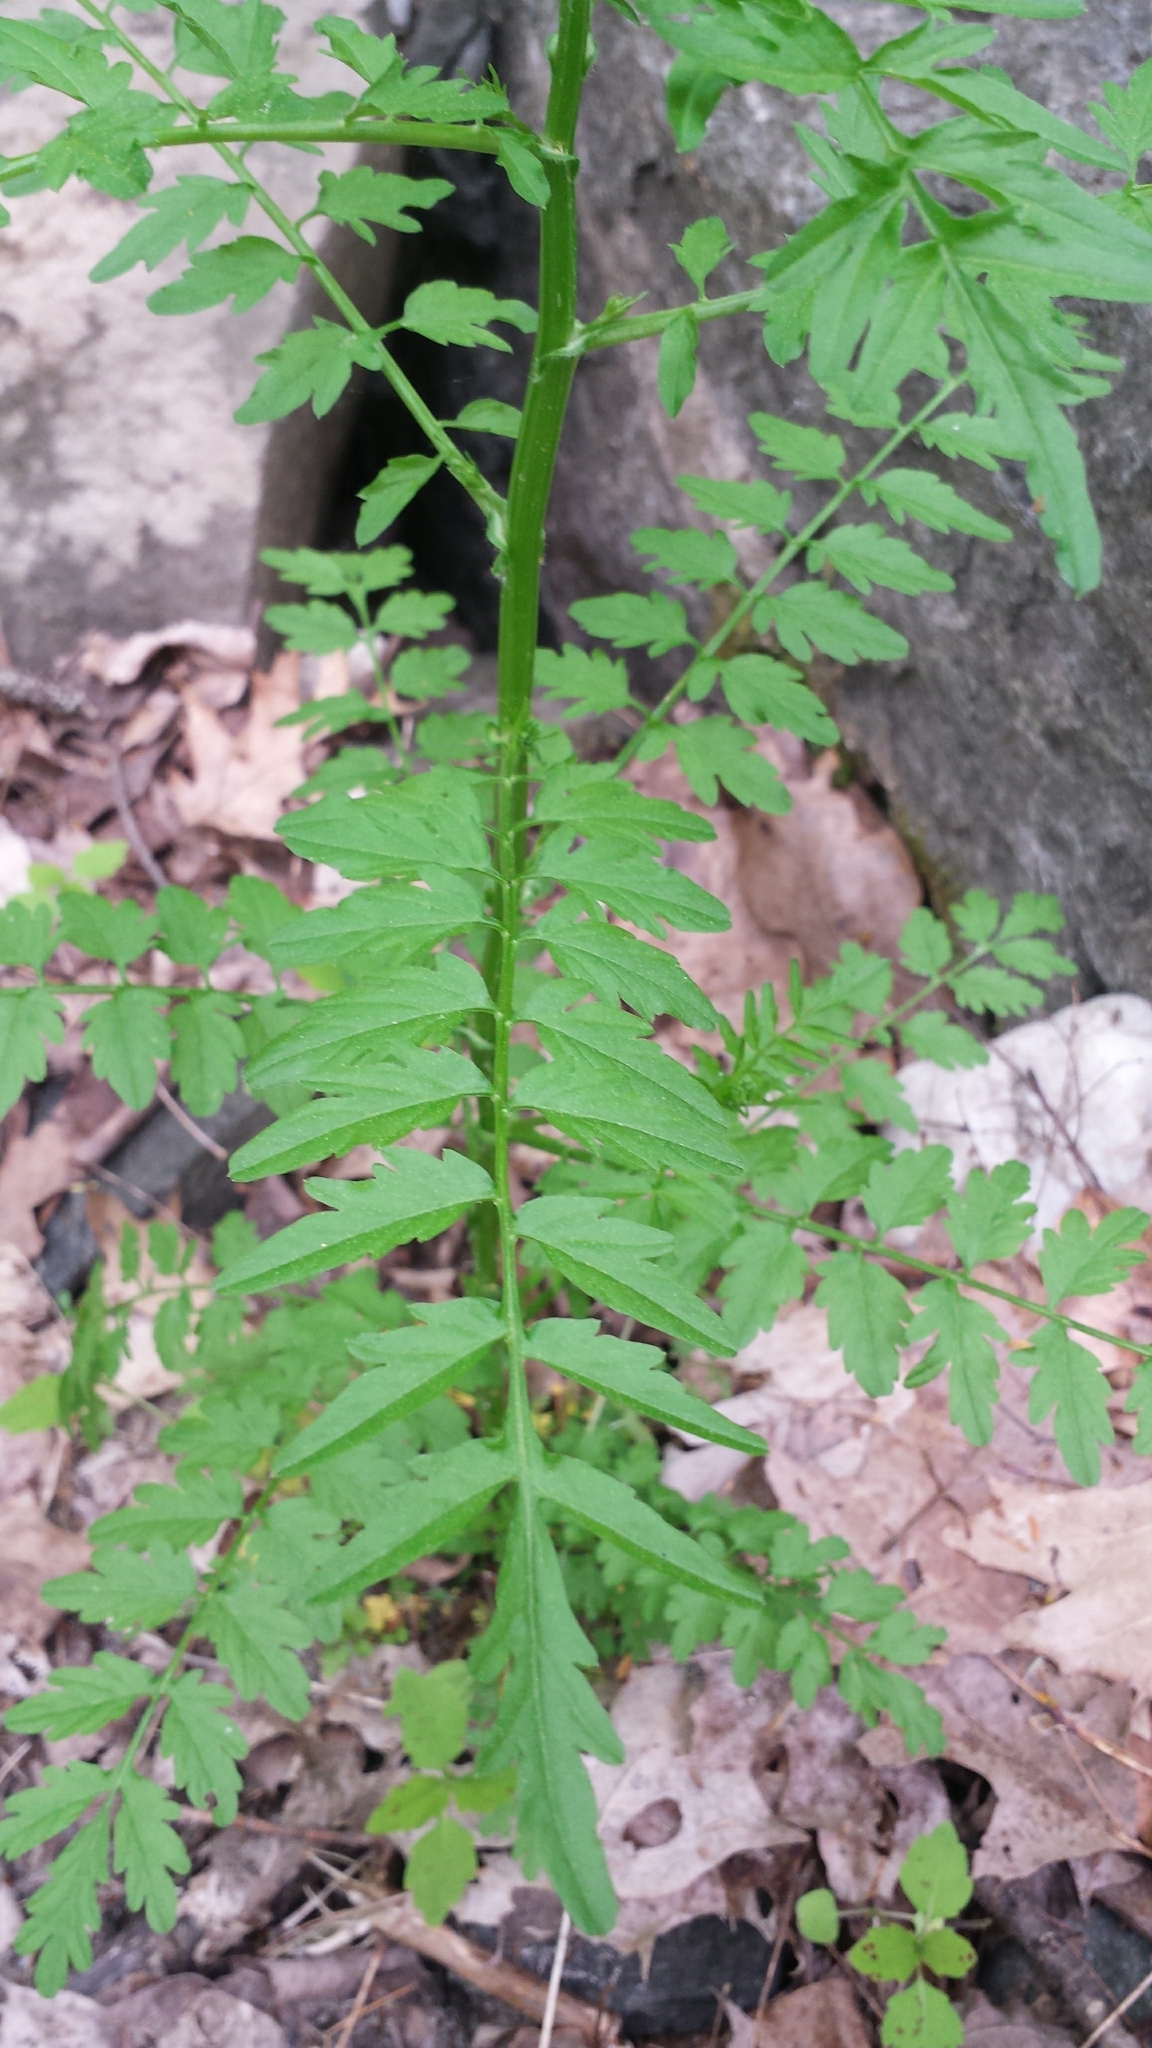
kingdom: Plantae
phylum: Tracheophyta
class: Magnoliopsida
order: Brassicales
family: Brassicaceae
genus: Cardamine
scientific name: Cardamine impatiens
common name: Narrow-leaved bitter-cress
